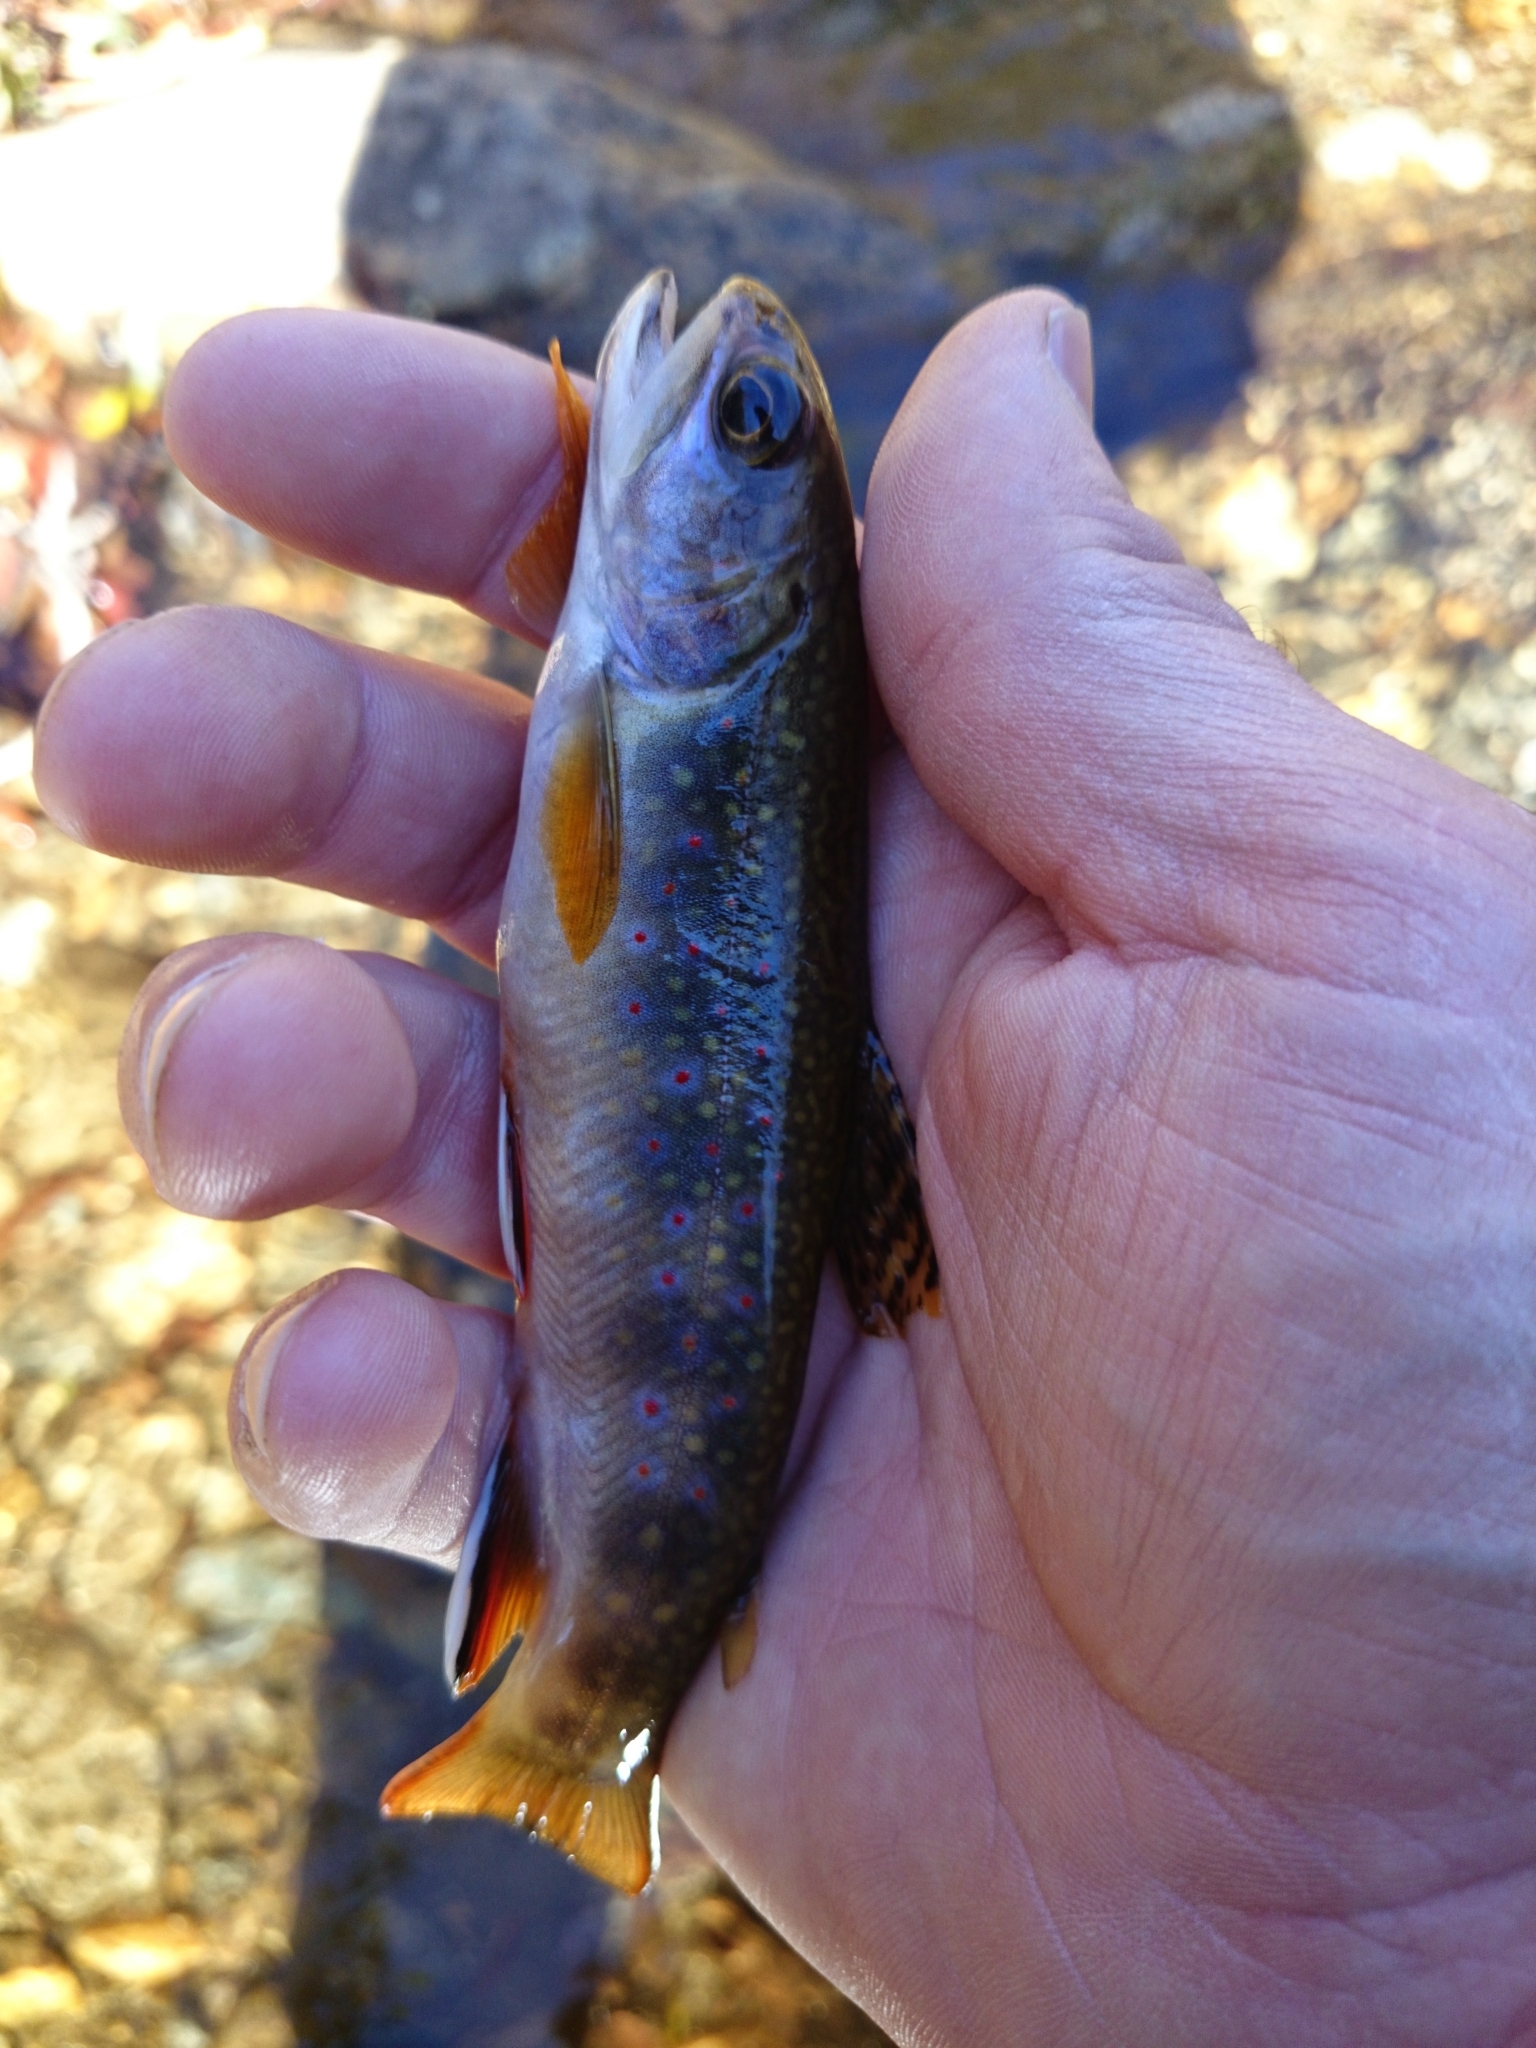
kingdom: Animalia
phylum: Chordata
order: Salmoniformes
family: Salmonidae
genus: Salvelinus
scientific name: Salvelinus fontinalis
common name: Brook trout
